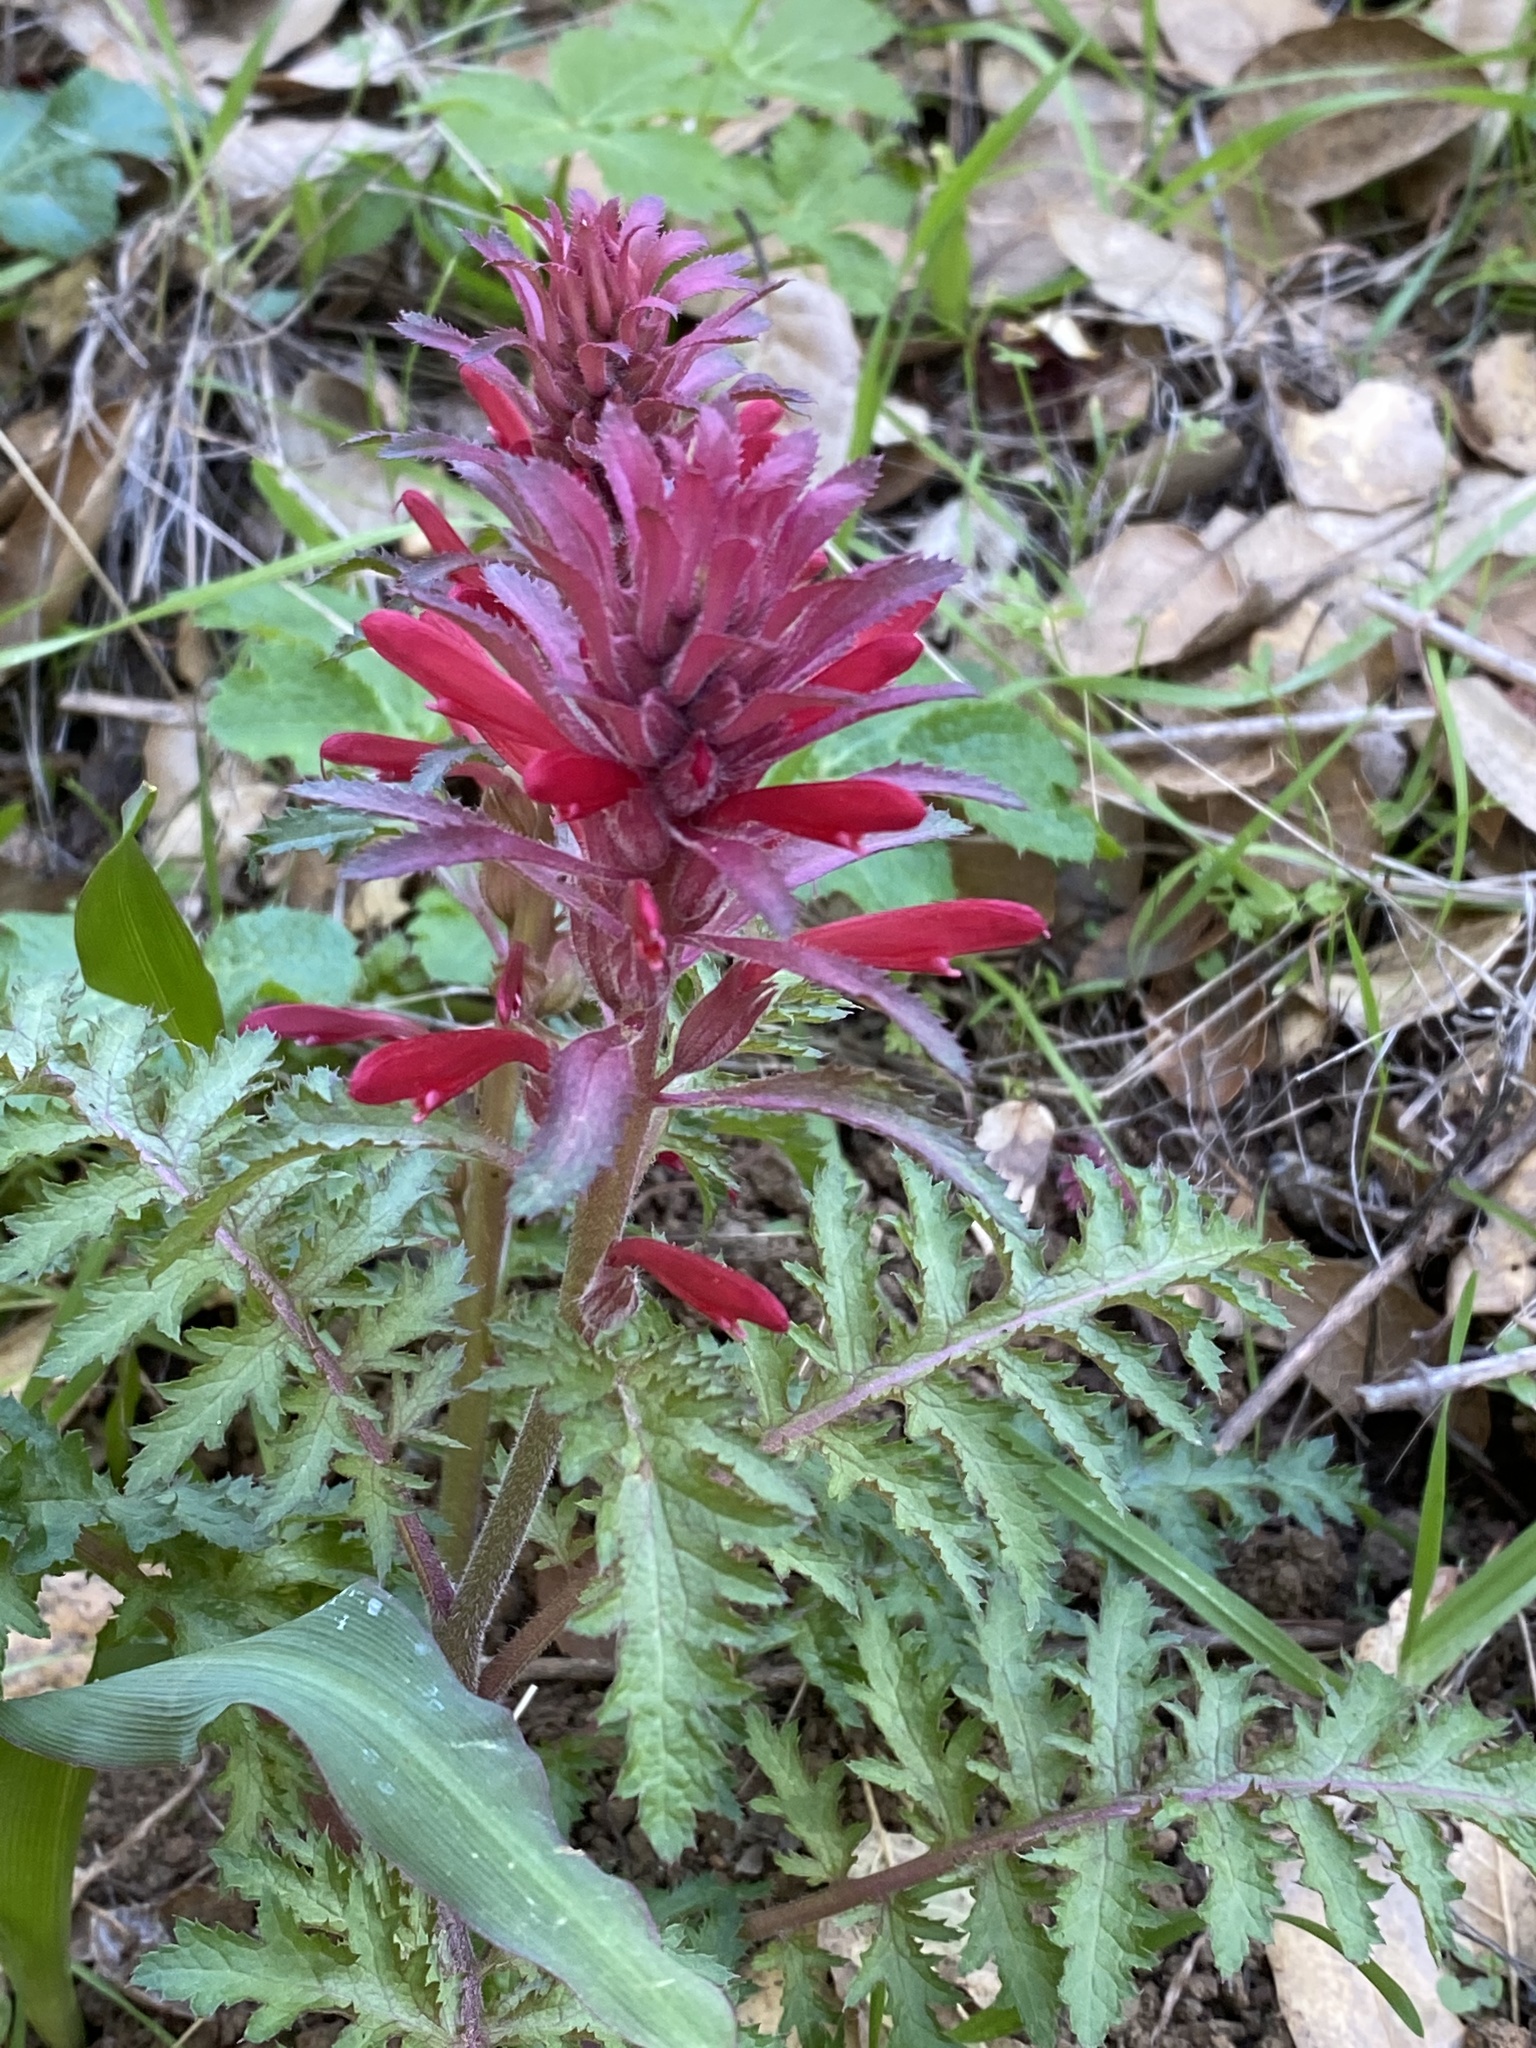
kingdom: Plantae
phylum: Tracheophyta
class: Magnoliopsida
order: Lamiales
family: Orobanchaceae
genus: Pedicularis
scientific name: Pedicularis densiflora
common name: Indian warrior
